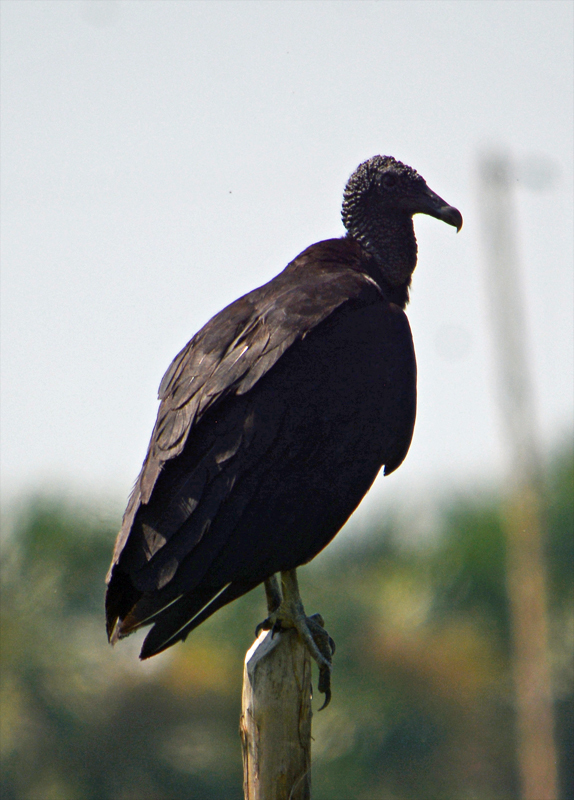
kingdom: Animalia
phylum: Chordata
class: Aves
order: Accipitriformes
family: Cathartidae
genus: Coragyps
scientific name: Coragyps atratus
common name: Black vulture
